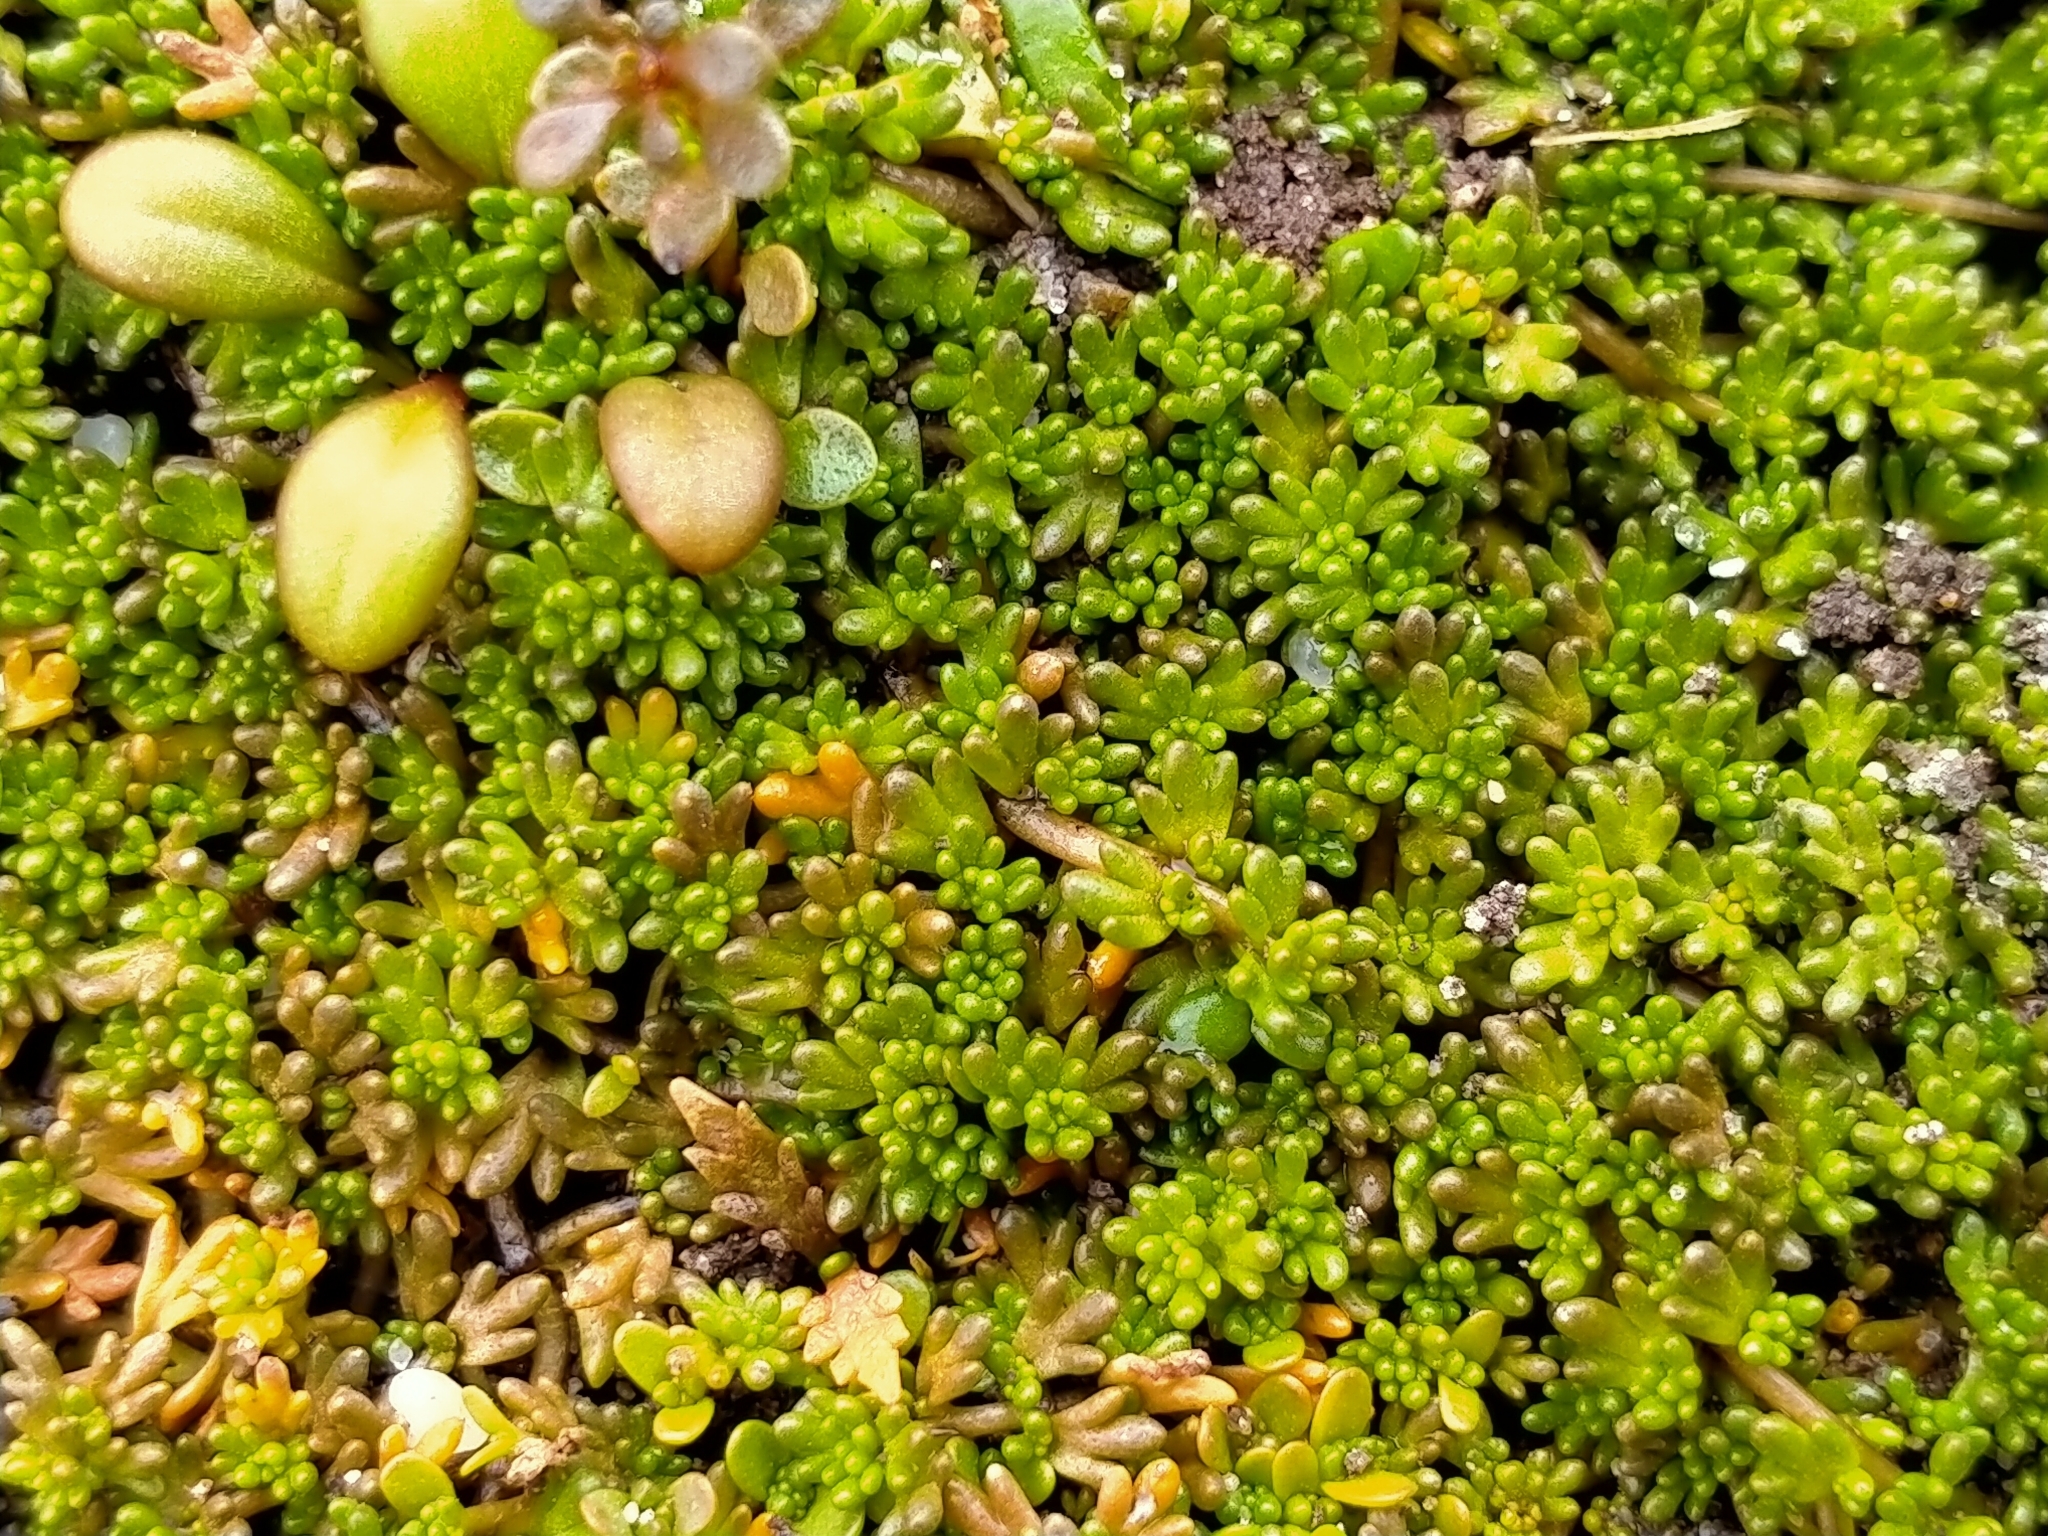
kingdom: Plantae
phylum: Tracheophyta
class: Magnoliopsida
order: Lamiales
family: Orobanchaceae
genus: Euphrasia
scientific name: Euphrasia repens
